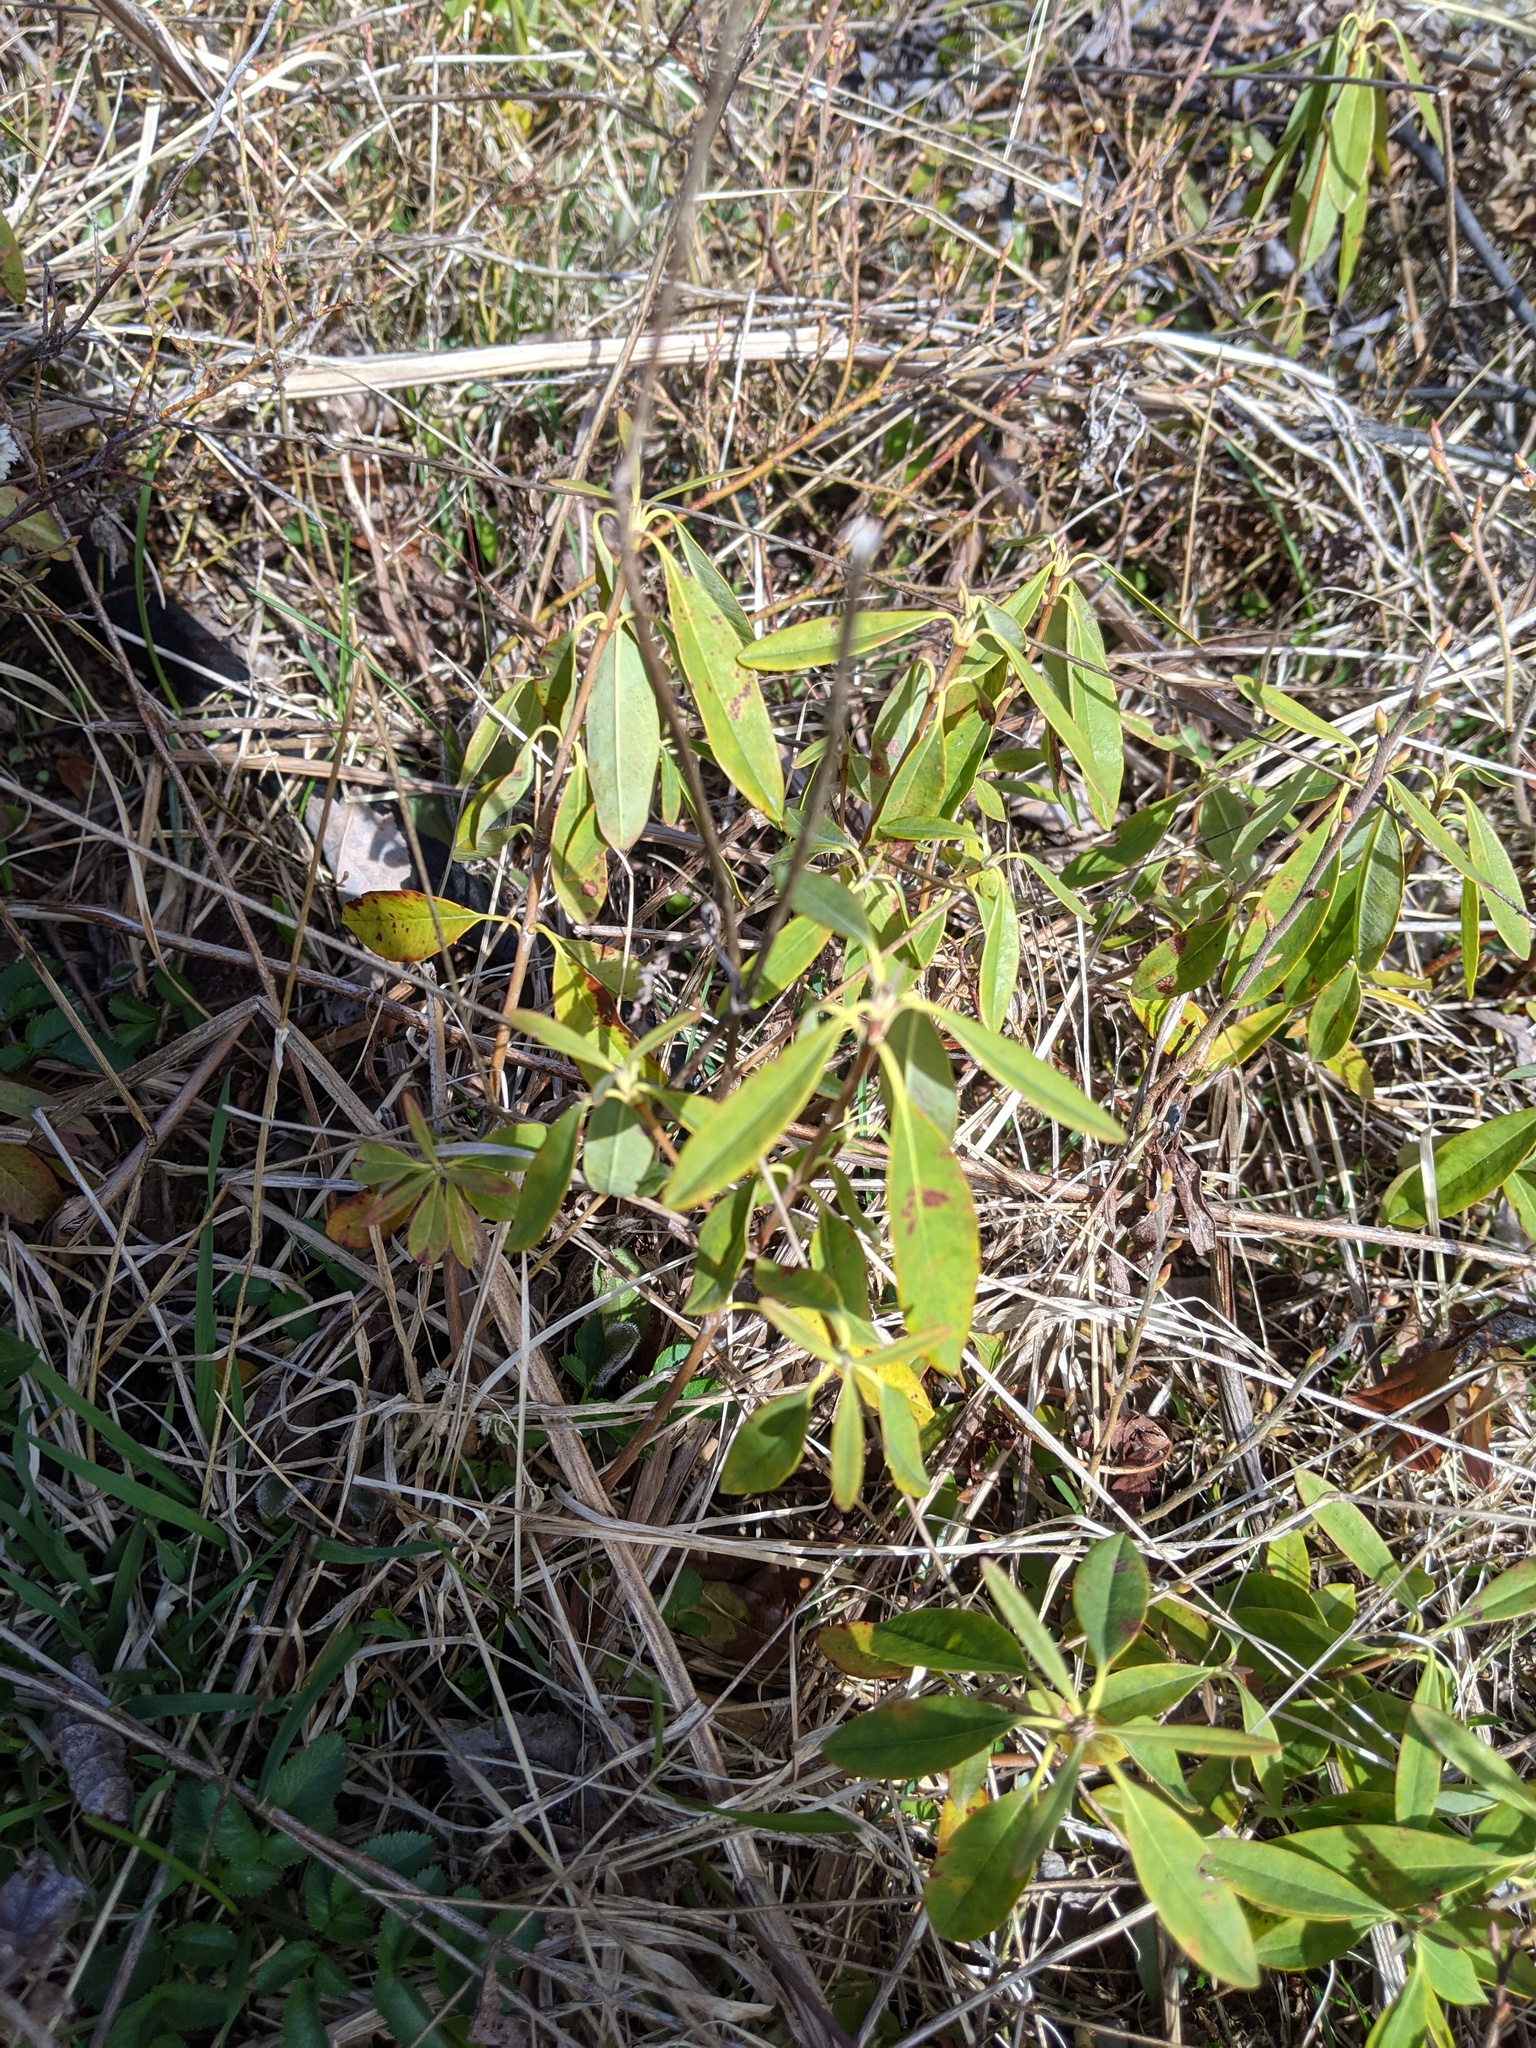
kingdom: Plantae
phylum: Tracheophyta
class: Magnoliopsida
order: Ericales
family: Ericaceae
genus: Kalmia
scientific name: Kalmia angustifolia
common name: Sheep-laurel
